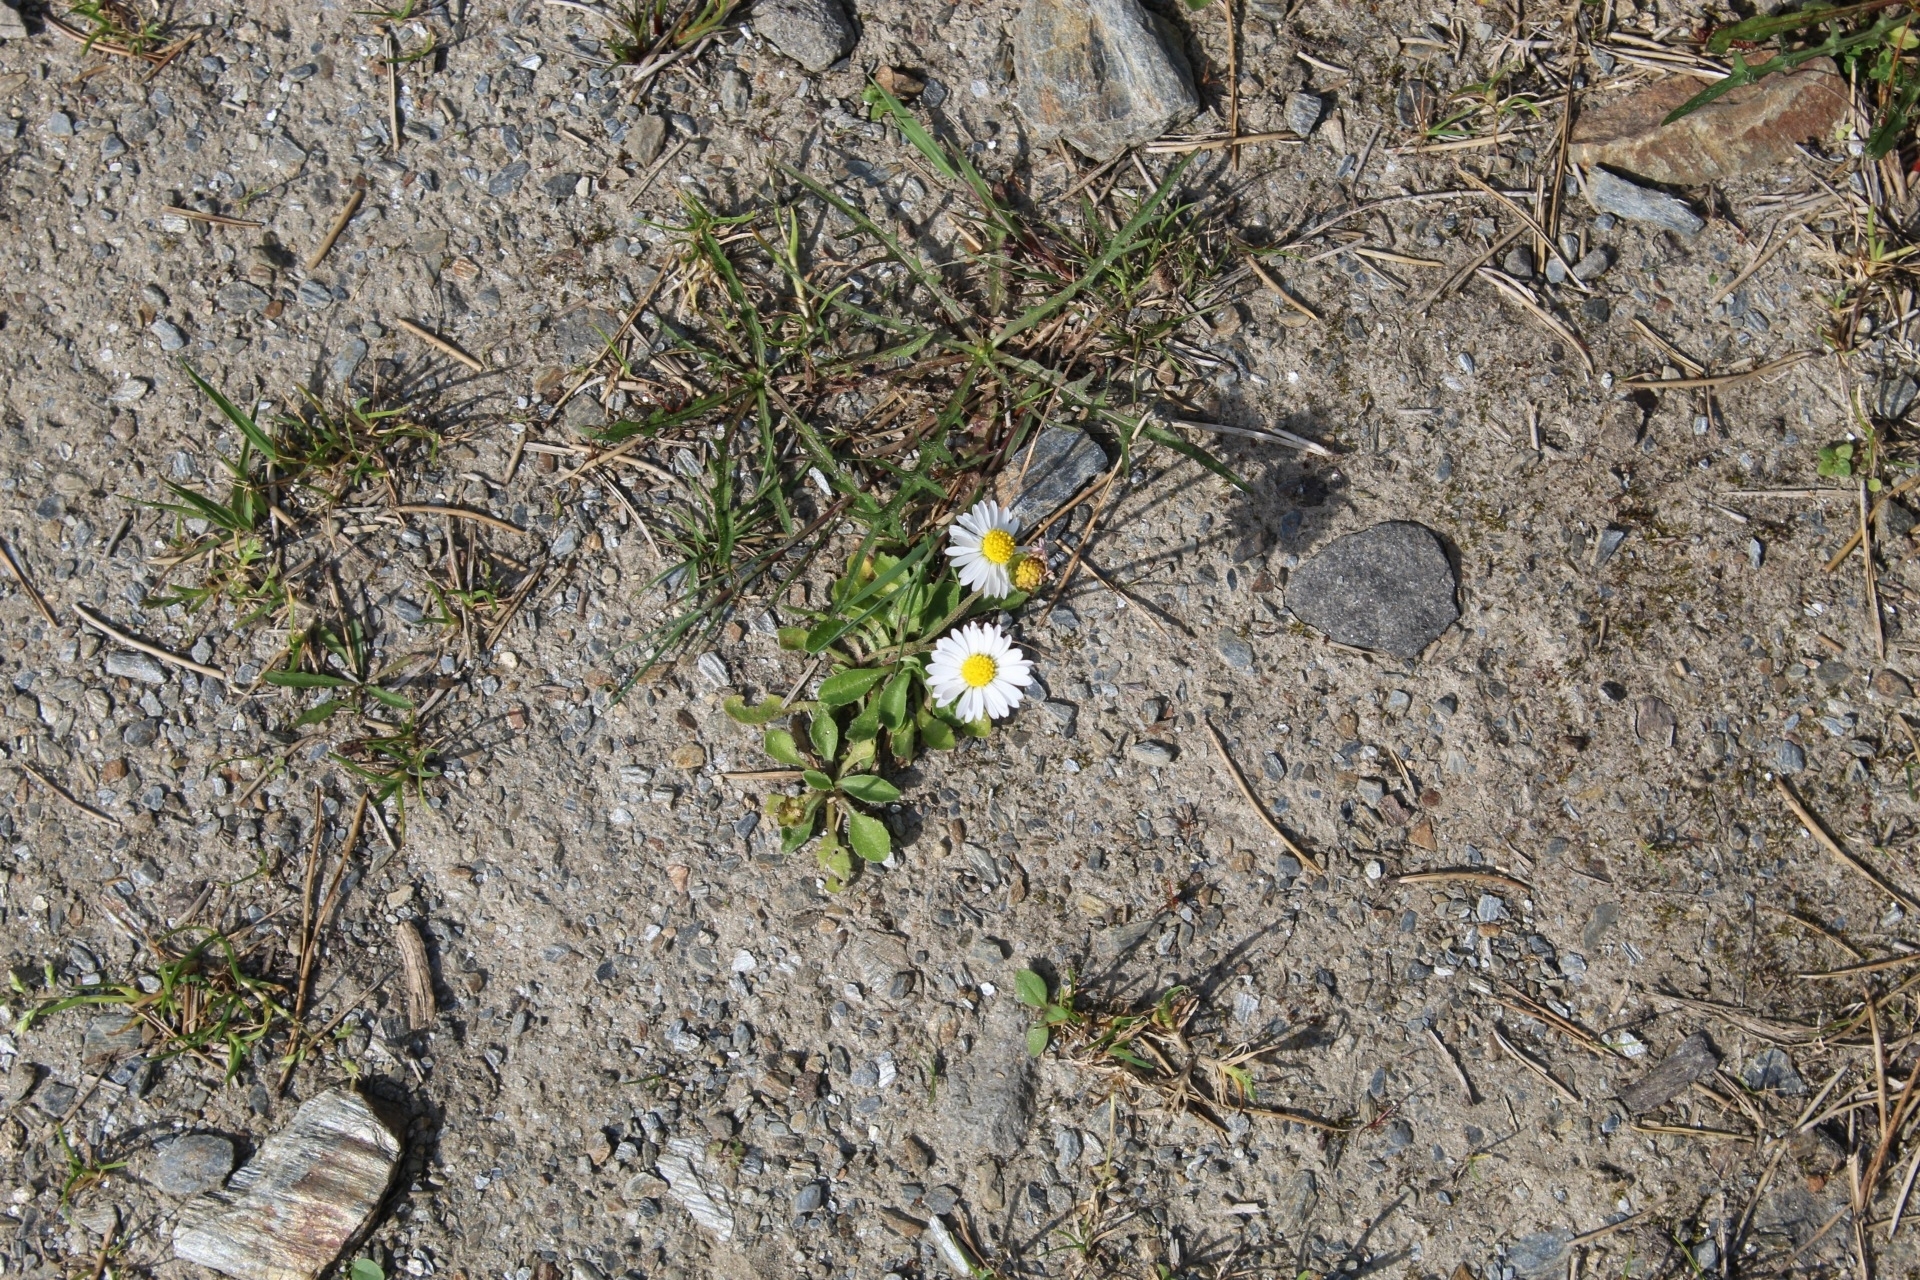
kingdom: Plantae
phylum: Tracheophyta
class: Magnoliopsida
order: Asterales
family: Asteraceae
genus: Bellis
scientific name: Bellis perennis
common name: Lawndaisy
